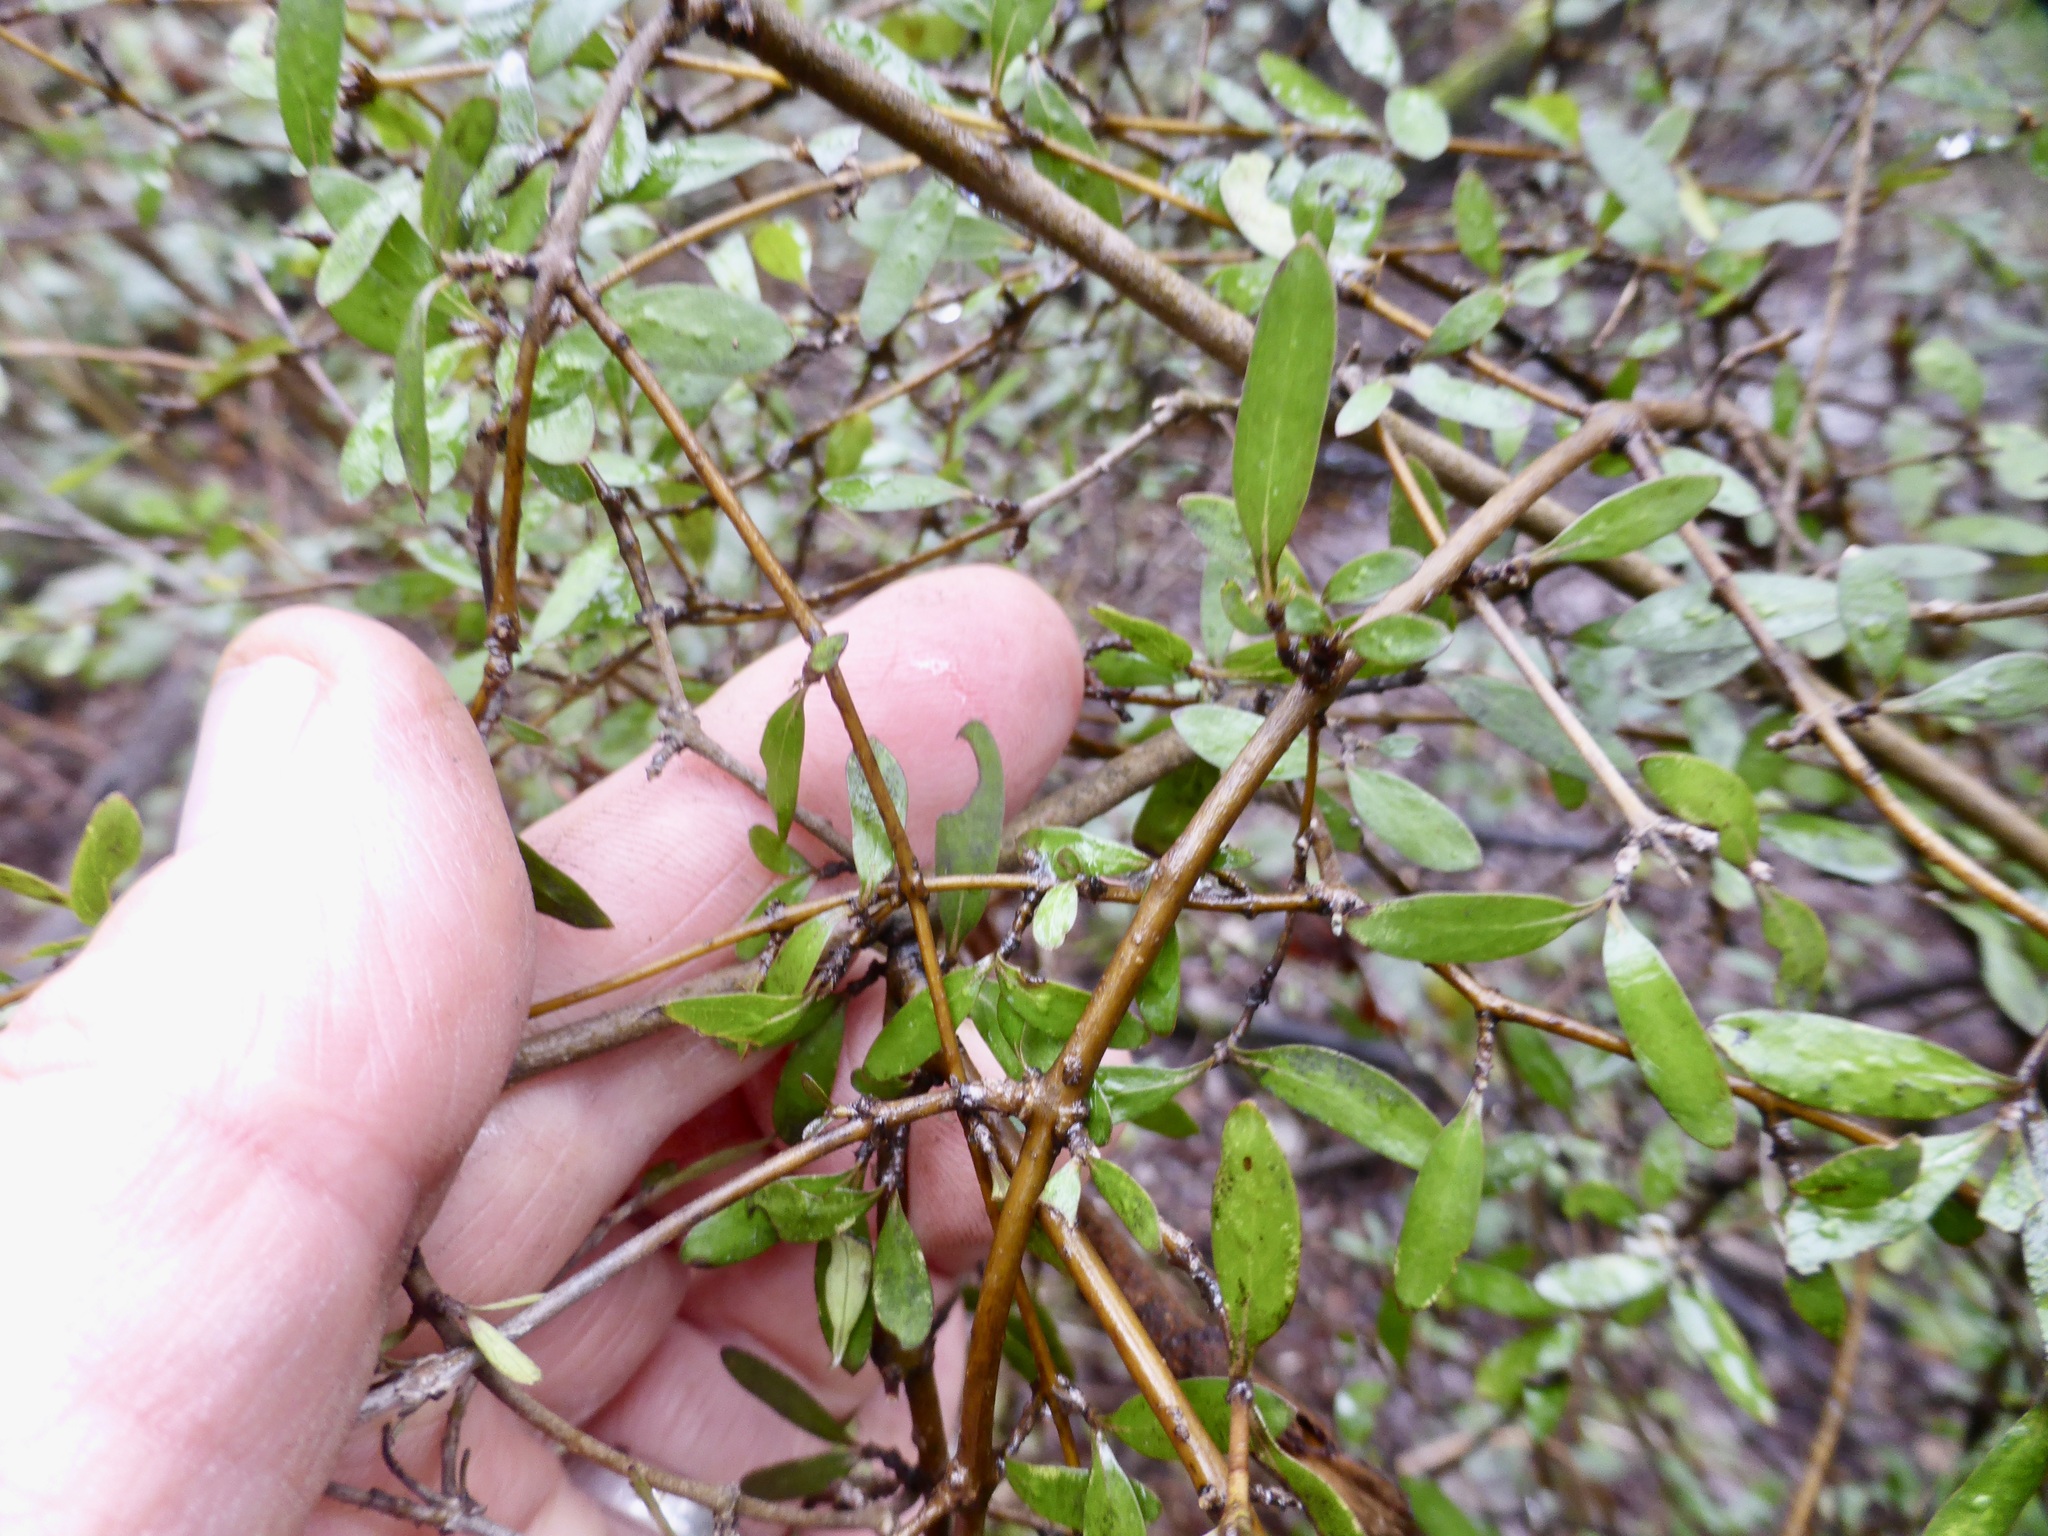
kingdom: Plantae
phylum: Tracheophyta
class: Magnoliopsida
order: Gentianales
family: Rubiaceae
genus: Coprosma
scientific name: Coprosma cunninghamii
